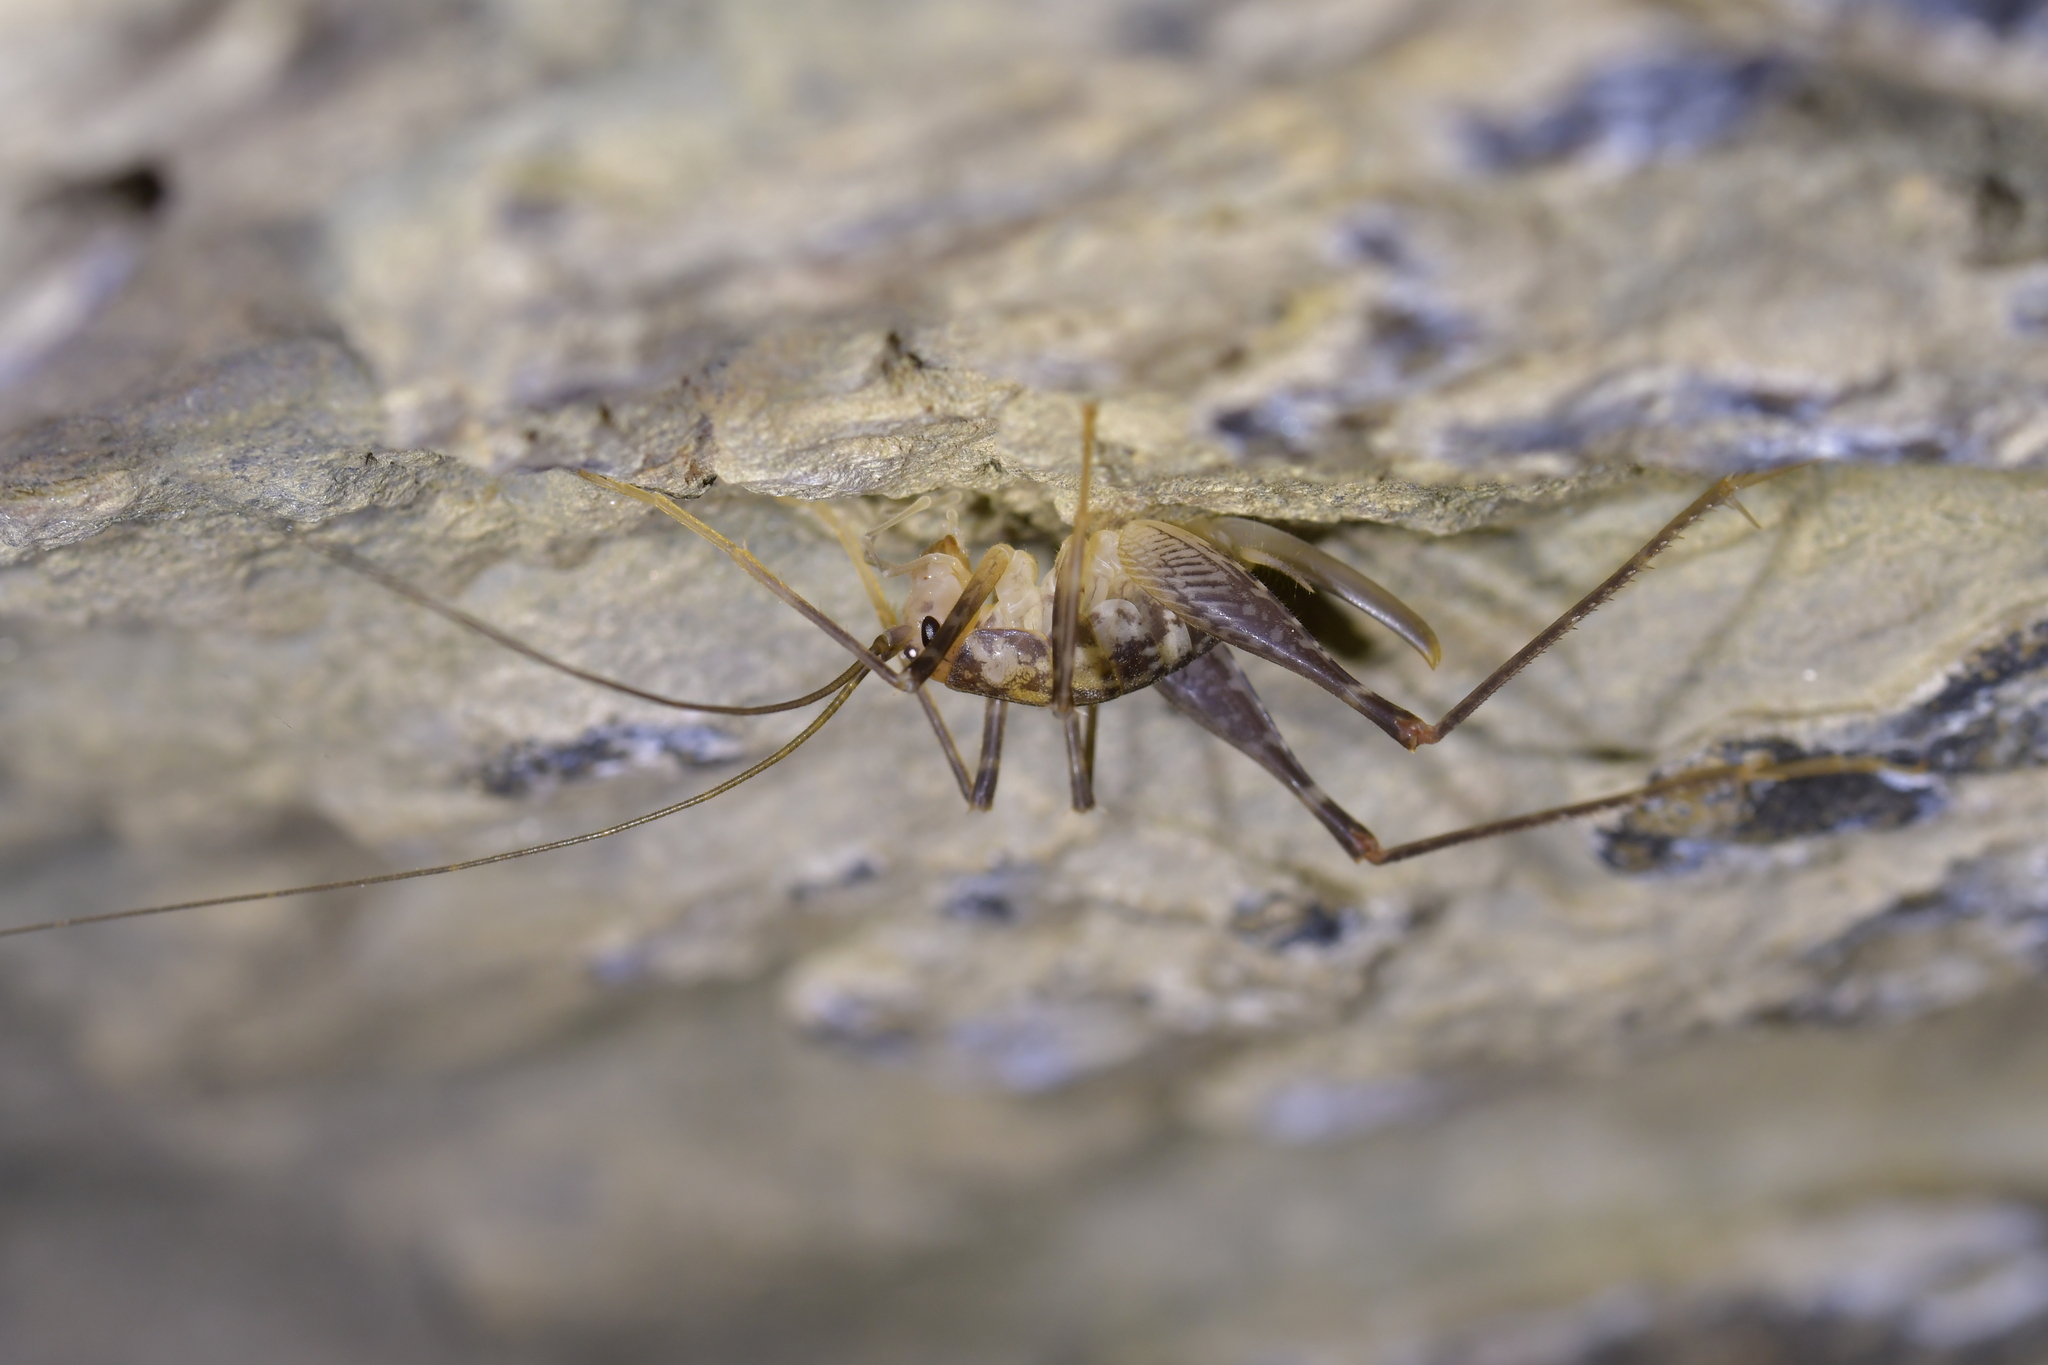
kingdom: Animalia
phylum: Arthropoda
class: Insecta
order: Orthoptera
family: Rhaphidophoridae
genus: Pleioplectron
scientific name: Pleioplectron thomsoni
